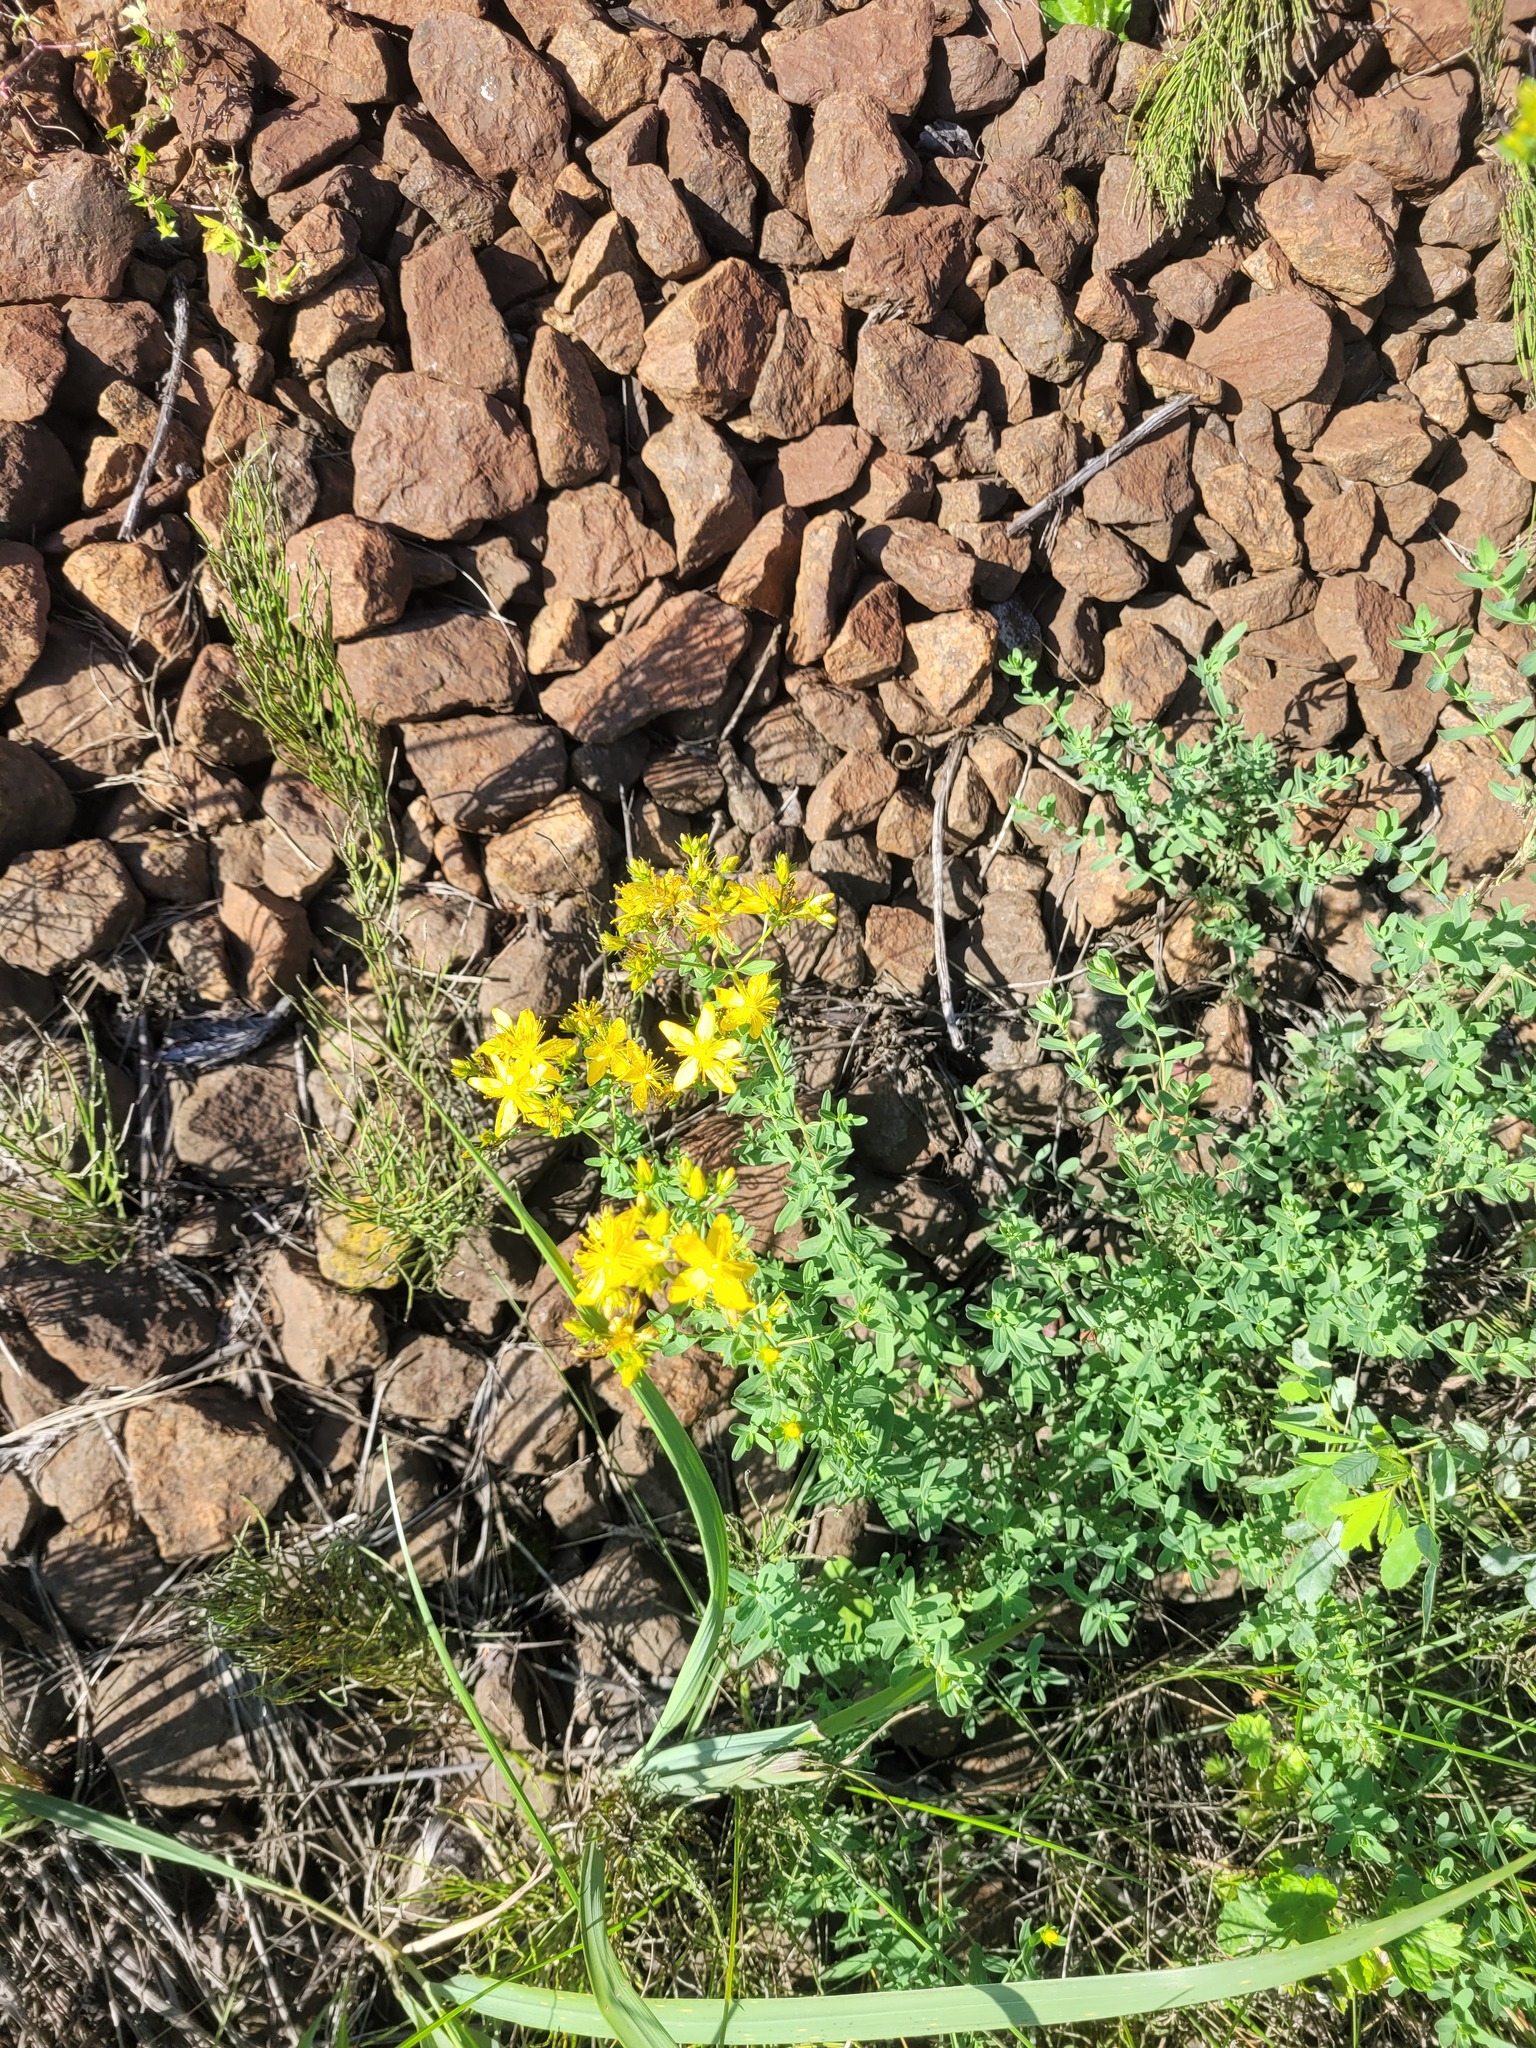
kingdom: Plantae
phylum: Tracheophyta
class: Magnoliopsida
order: Malpighiales
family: Hypericaceae
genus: Hypericum
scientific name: Hypericum perforatum
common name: Common st. johnswort
